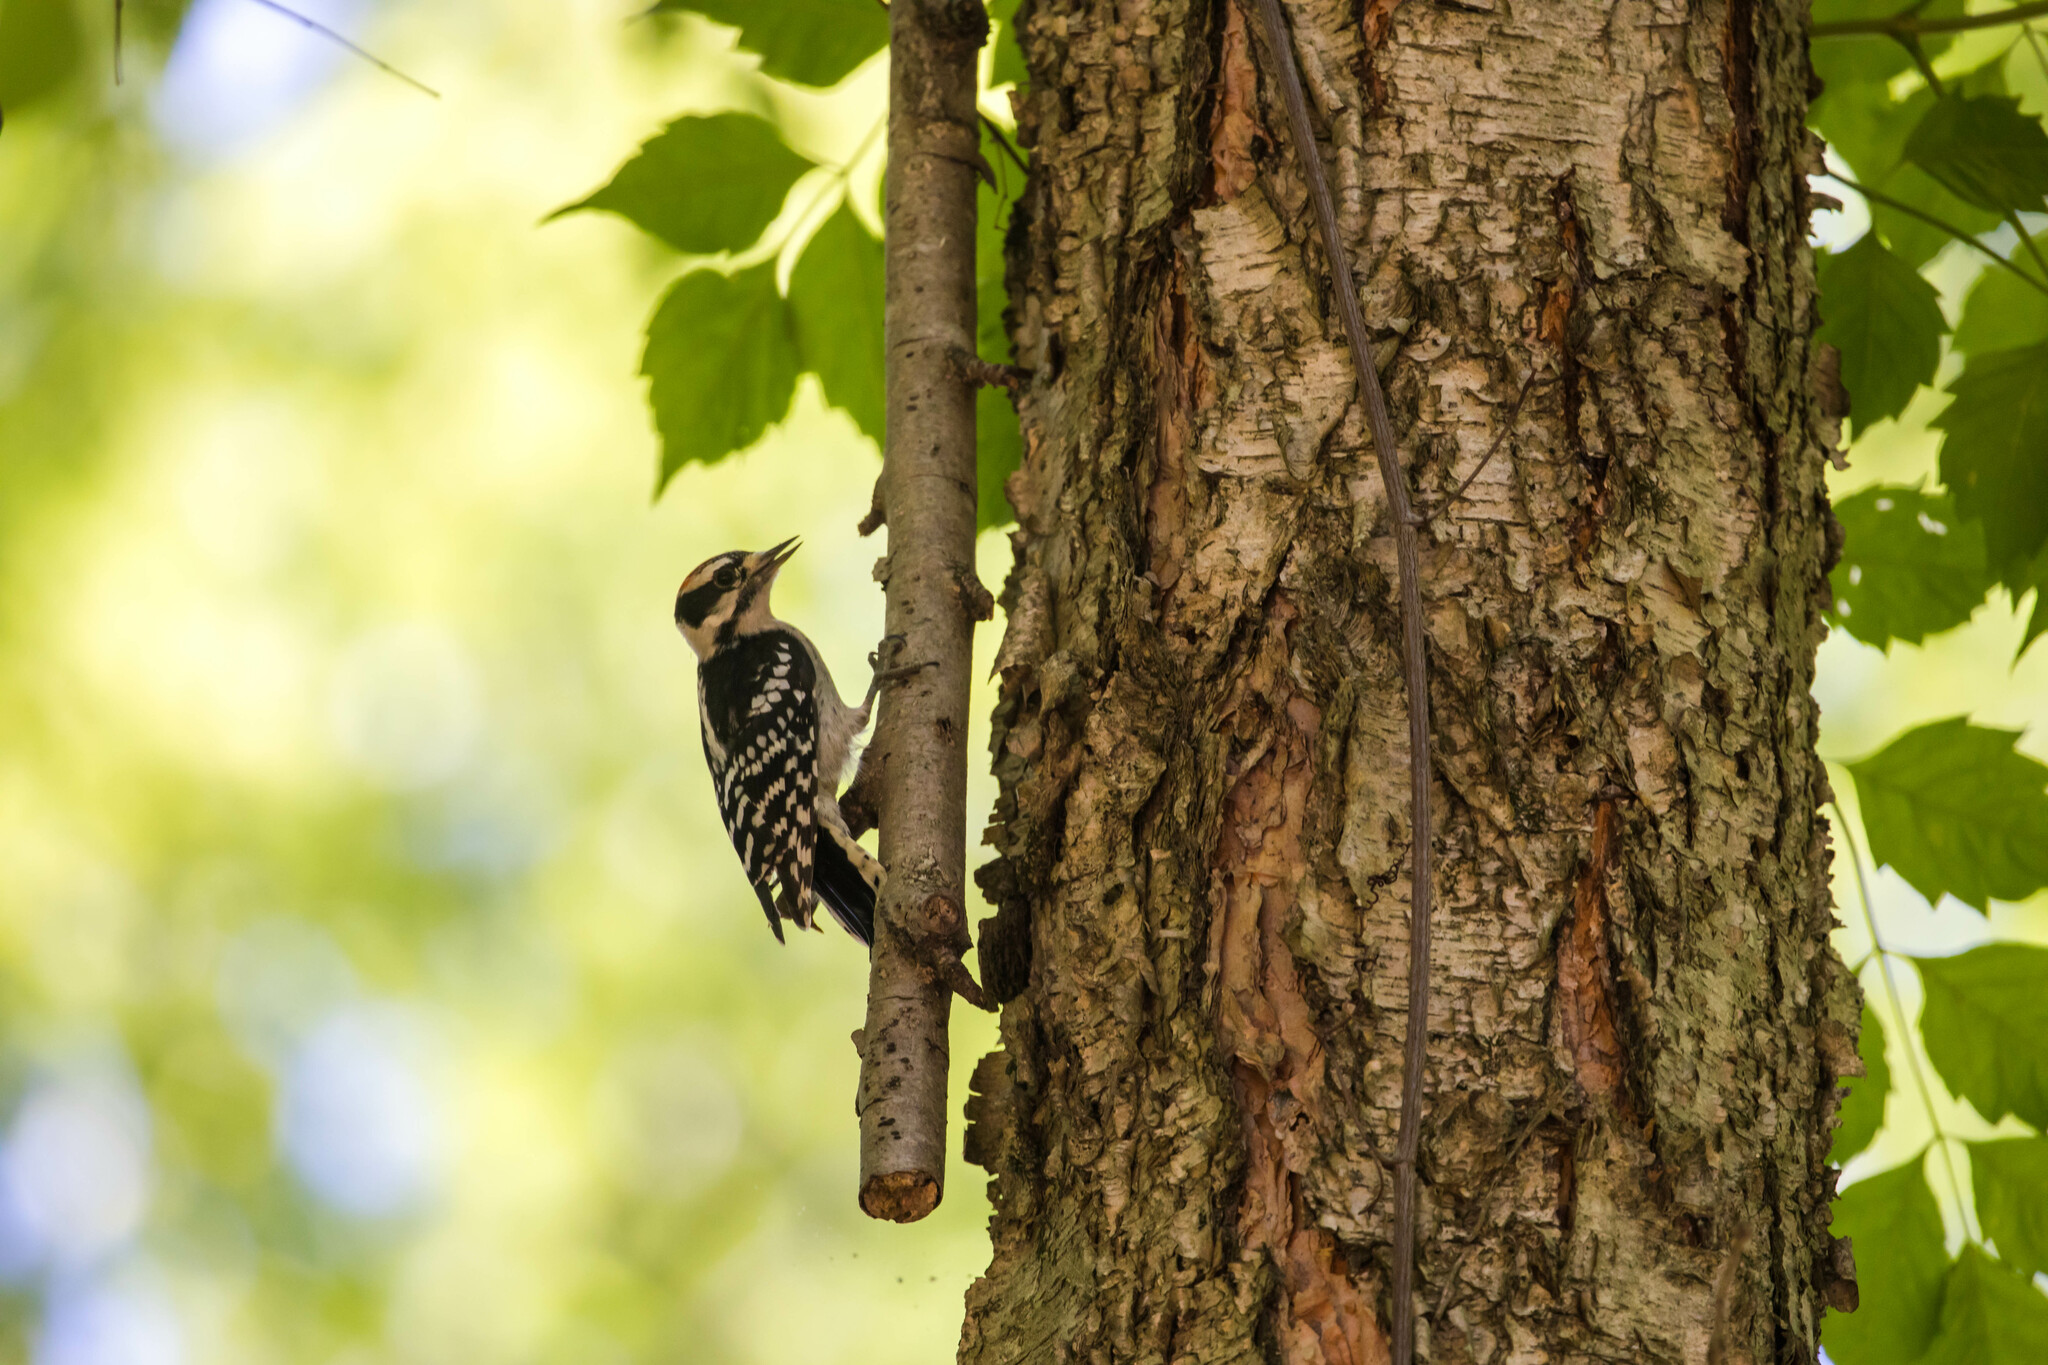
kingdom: Animalia
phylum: Chordata
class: Aves
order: Piciformes
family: Picidae
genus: Dryobates
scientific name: Dryobates pubescens
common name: Downy woodpecker
